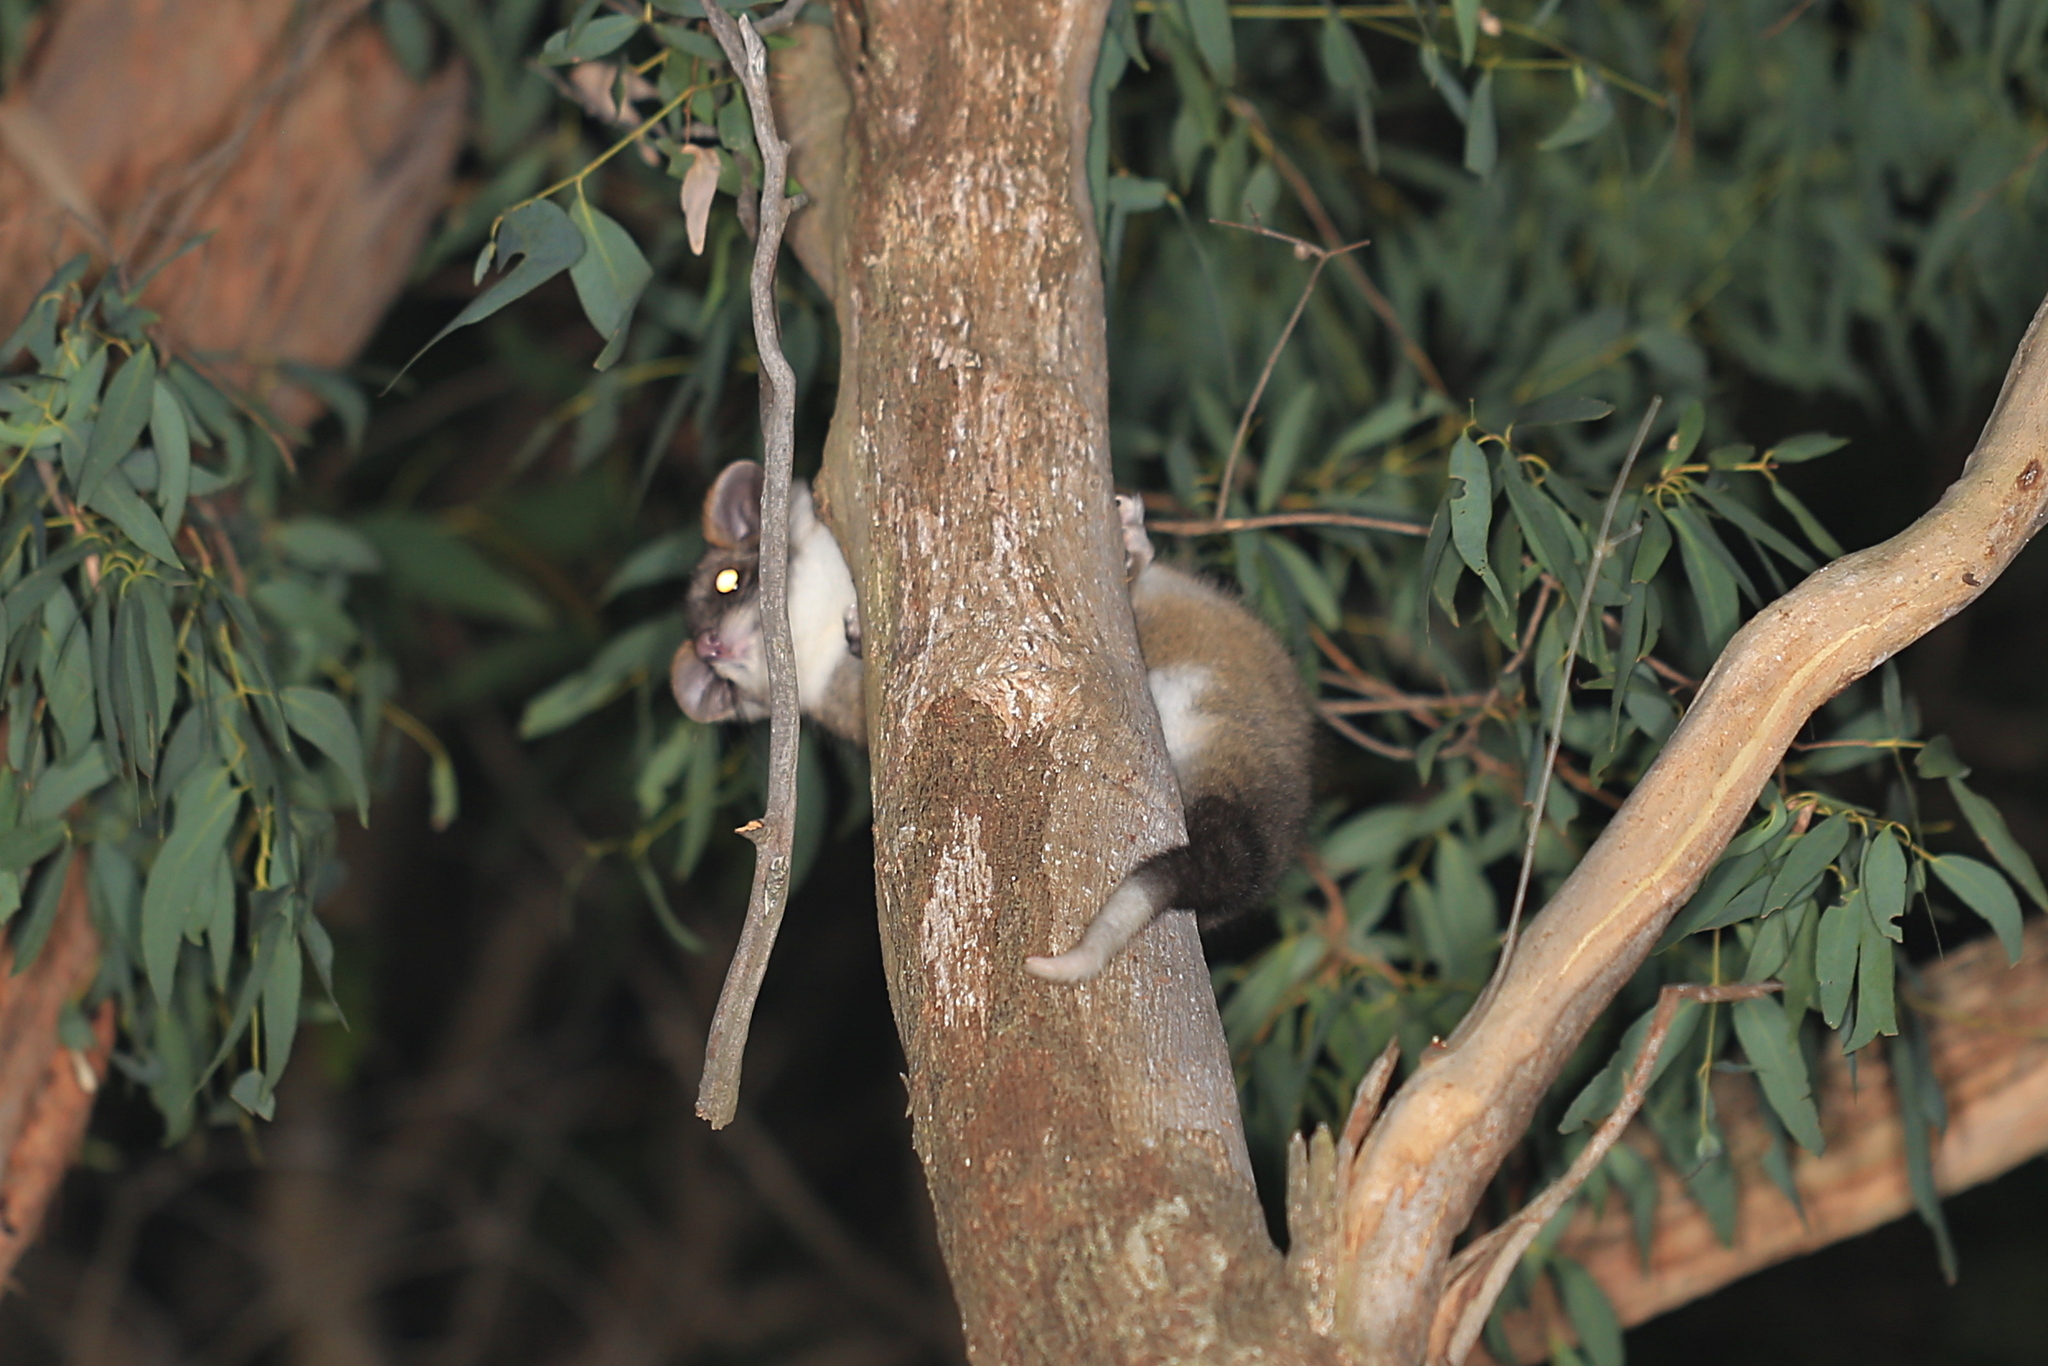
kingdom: Animalia
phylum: Chordata
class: Mammalia
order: Diprotodontia
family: Pseudocheiridae
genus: Pseudocheirus
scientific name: Pseudocheirus peregrinus
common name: Common ringtail possum
